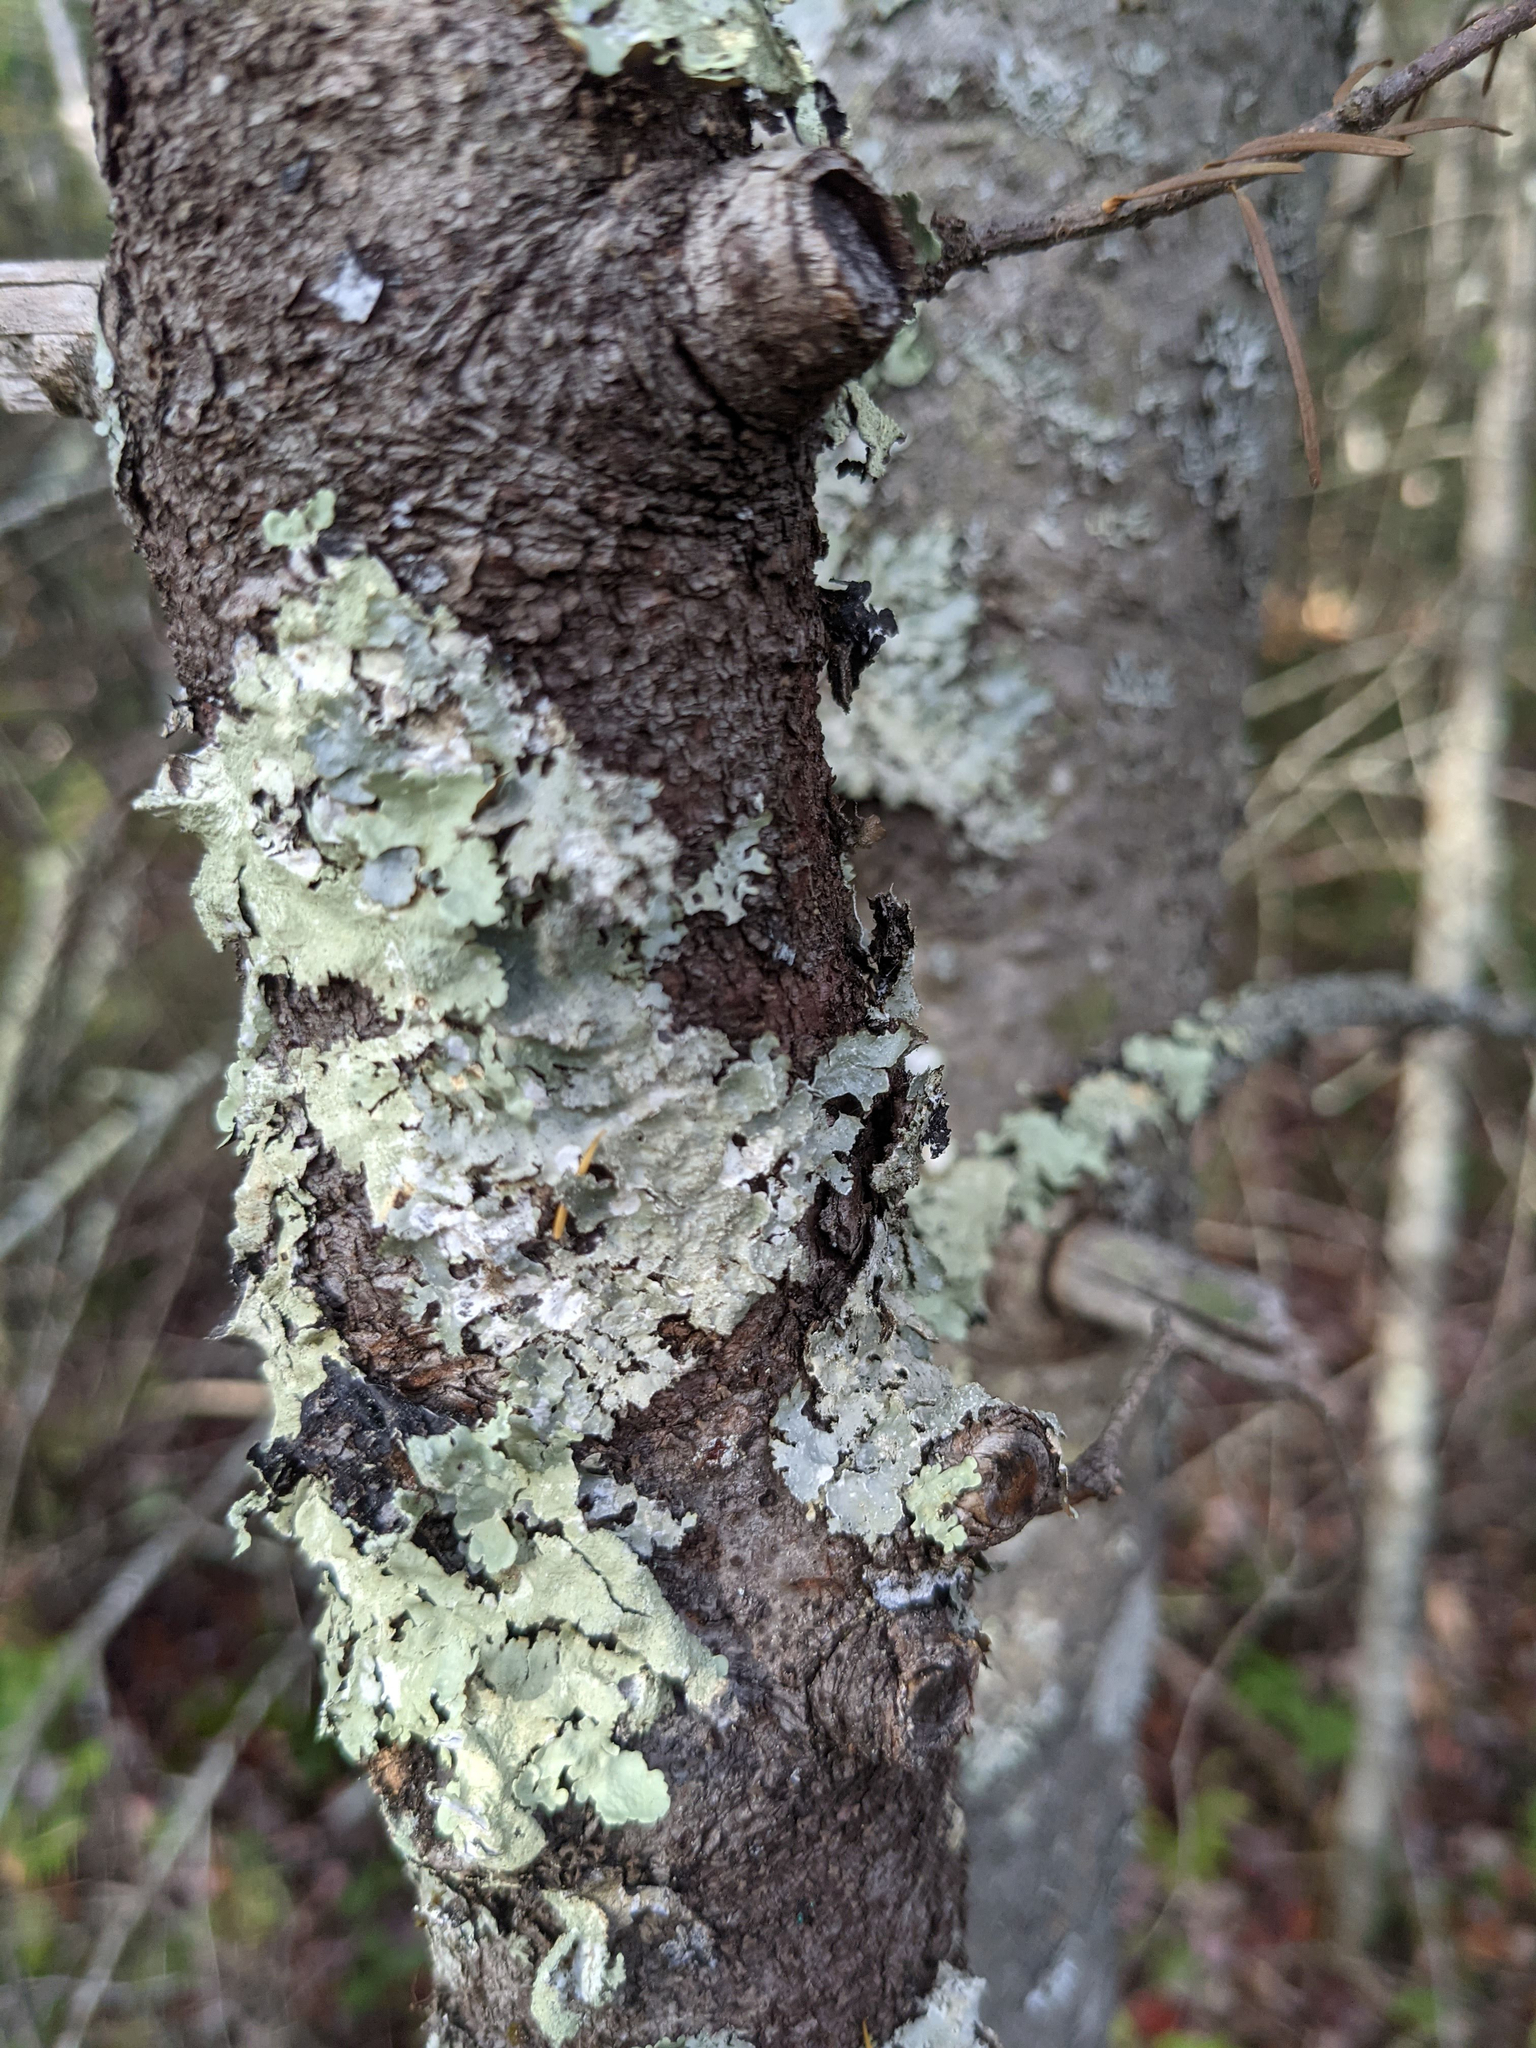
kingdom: Fungi
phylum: Ascomycota
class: Lecanoromycetes
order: Lecanorales
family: Parmeliaceae
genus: Flavoparmelia
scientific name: Flavoparmelia caperata
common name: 40-mile per hour lichen
